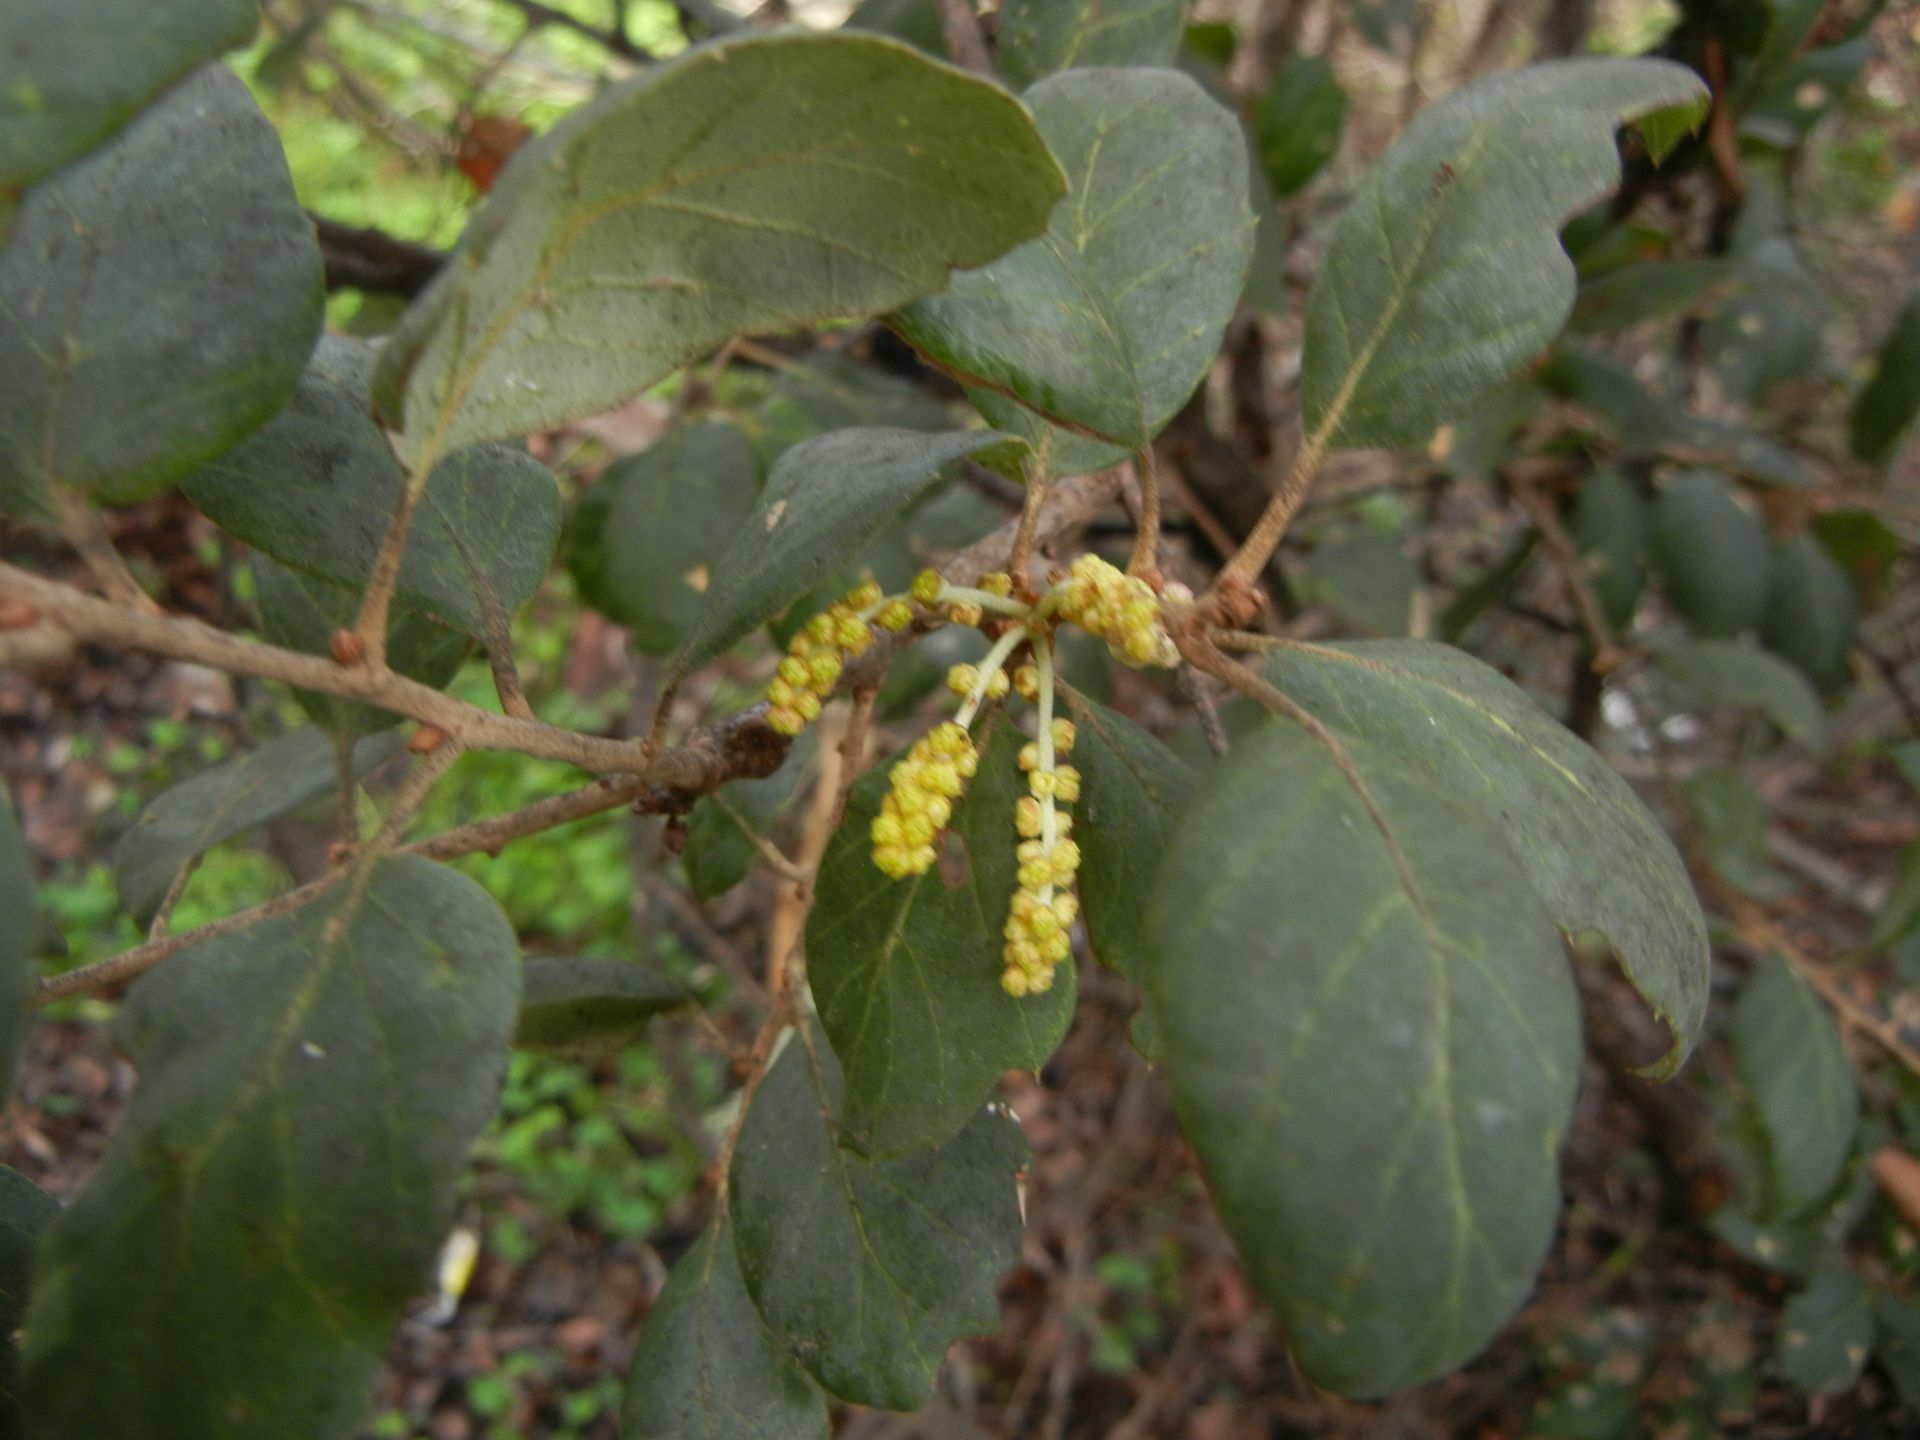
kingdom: Plantae
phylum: Tracheophyta
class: Magnoliopsida
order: Fagales
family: Fagaceae
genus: Quercus
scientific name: Quercus suber
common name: Cork oak
